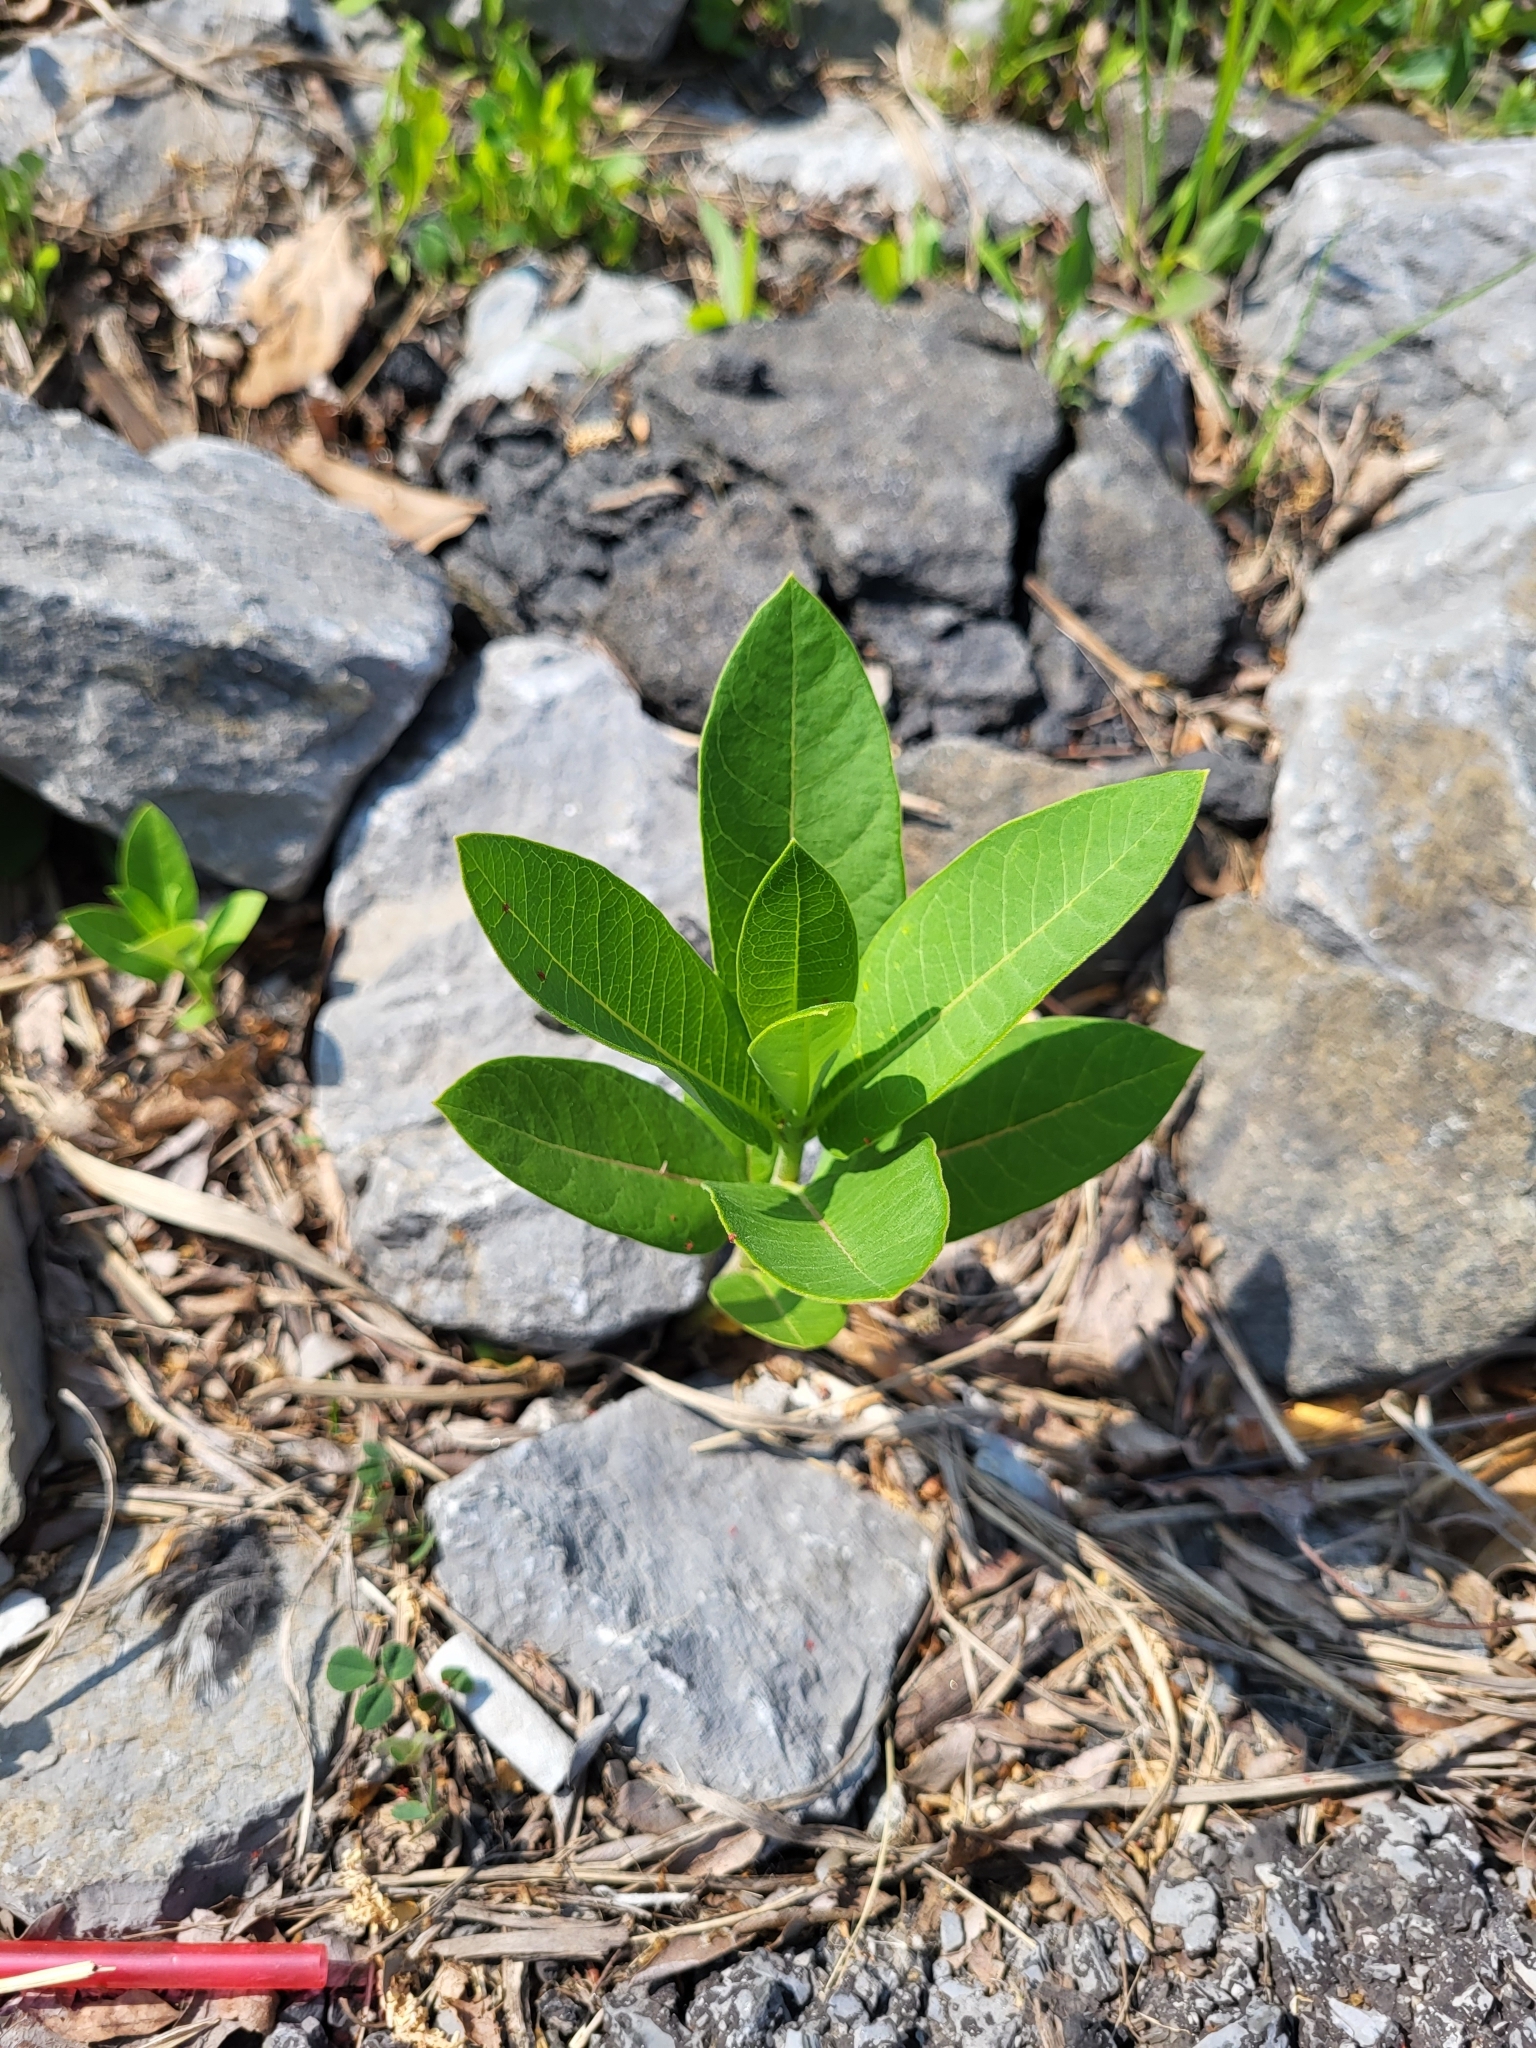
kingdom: Plantae
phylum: Tracheophyta
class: Magnoliopsida
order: Gentianales
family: Apocynaceae
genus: Asclepias
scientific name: Asclepias syriaca
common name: Common milkweed
